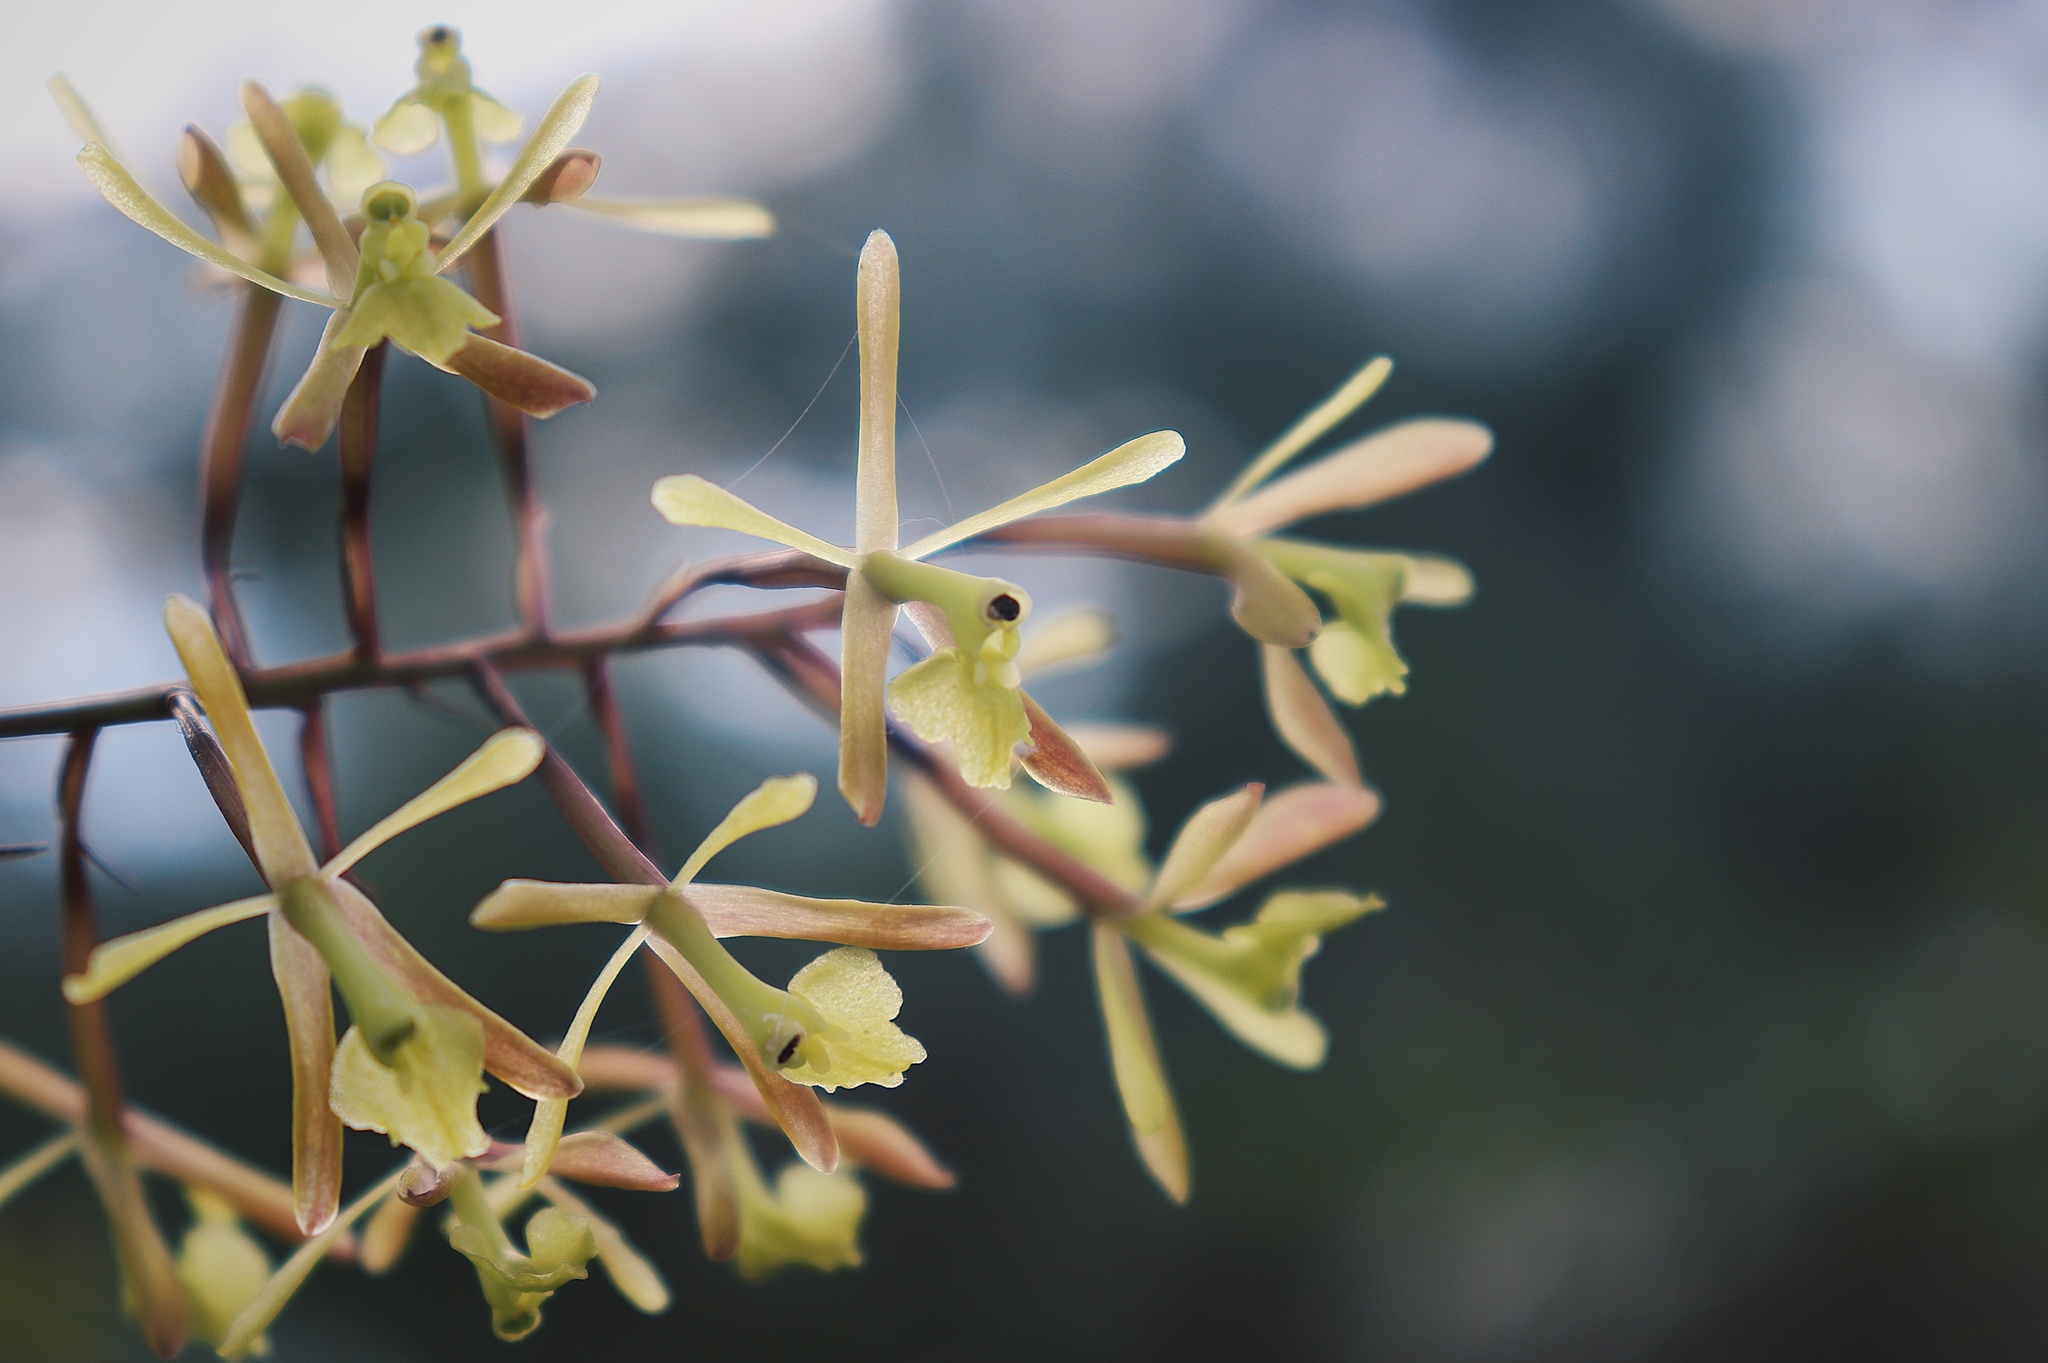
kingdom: Plantae
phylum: Tracheophyta
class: Liliopsida
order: Asparagales
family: Orchidaceae
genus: Epidendrum
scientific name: Epidendrum conopseum
